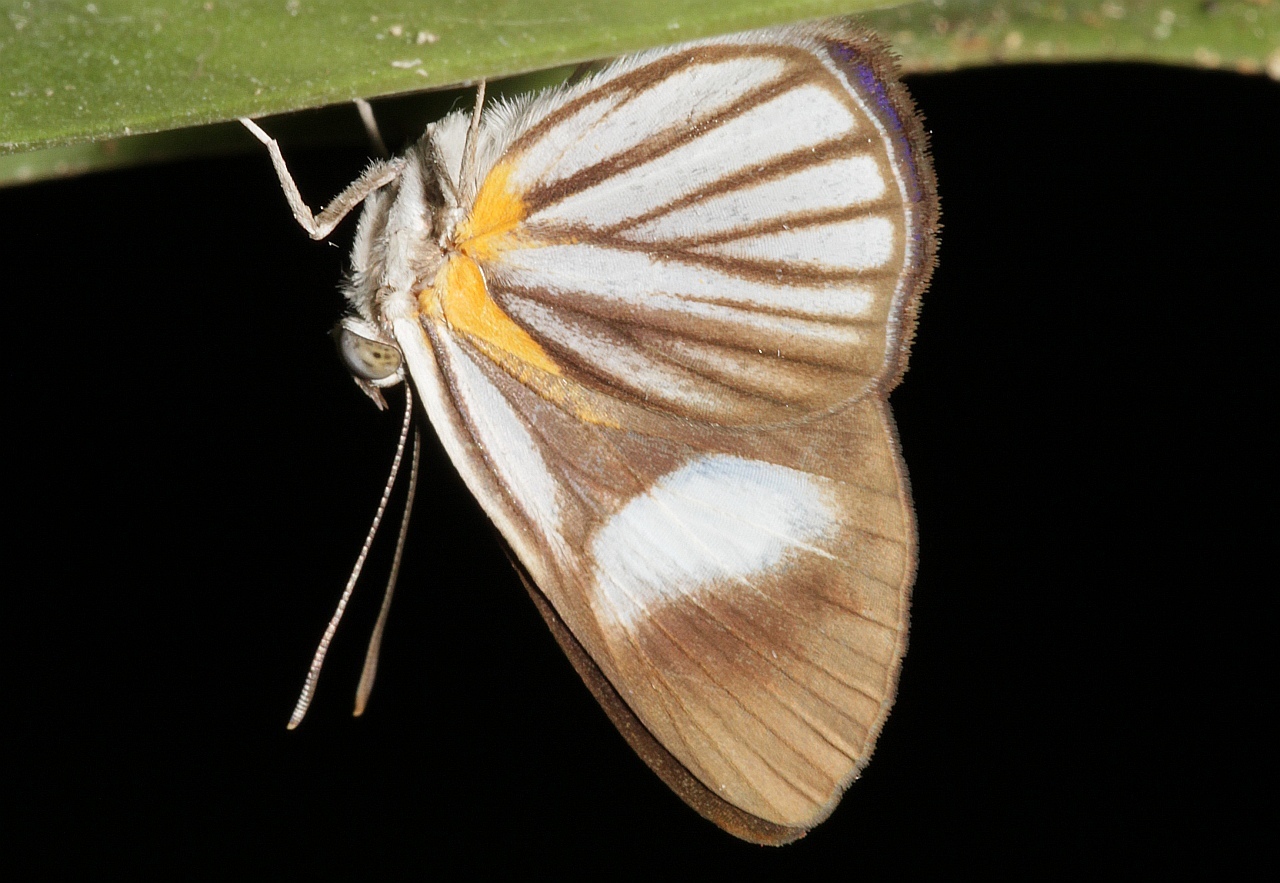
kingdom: Animalia
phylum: Arthropoda
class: Insecta
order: Lepidoptera
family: Riodinidae
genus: Orimba
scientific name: Orimba disparilis
